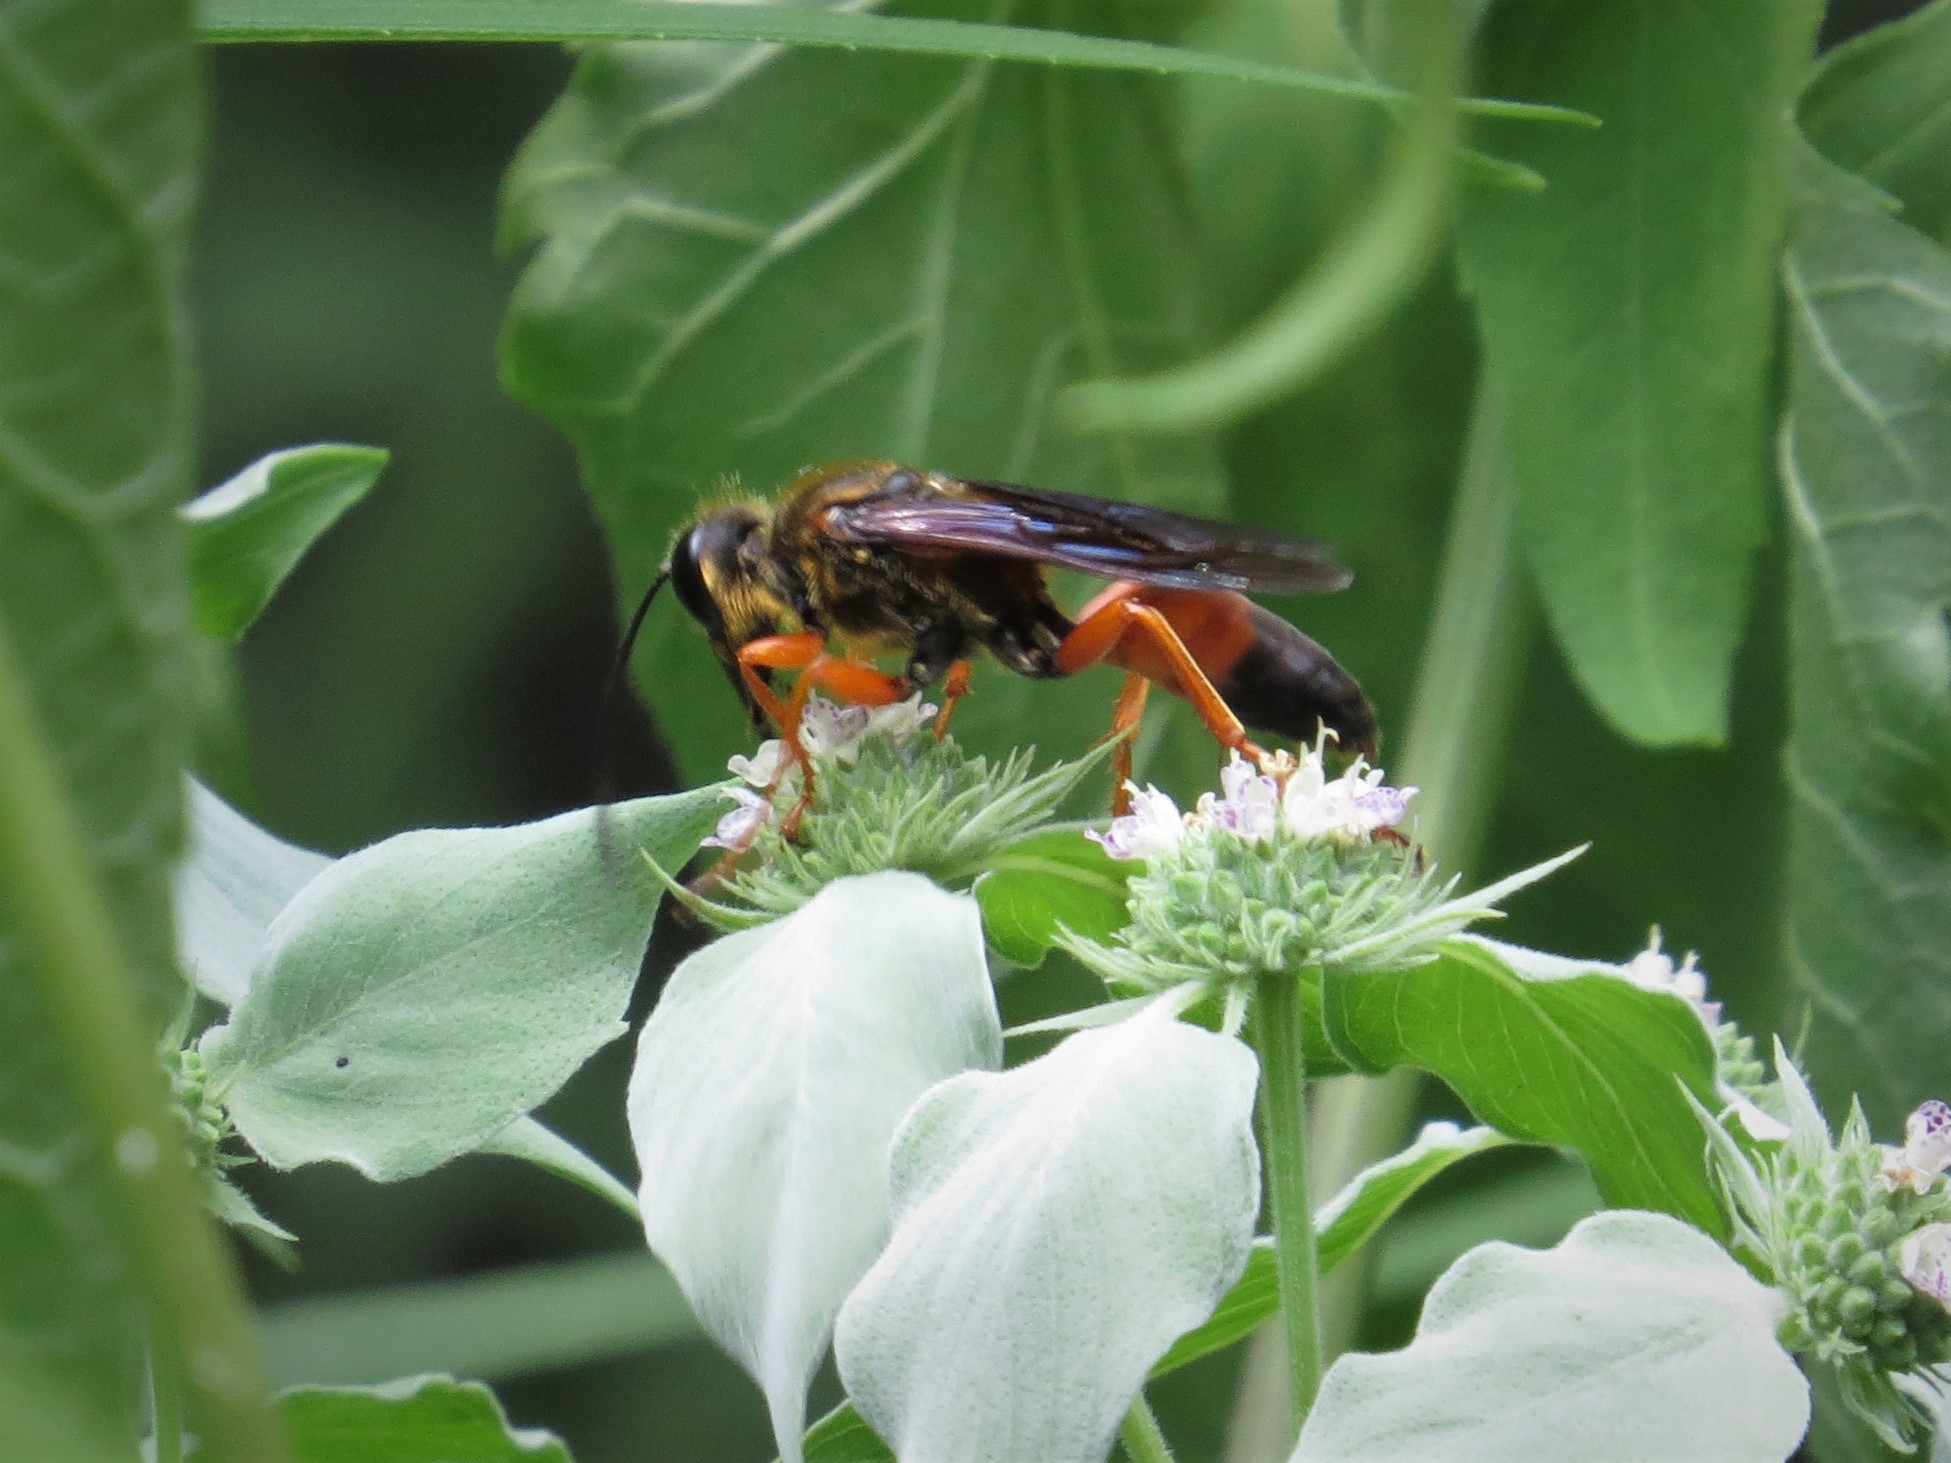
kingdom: Animalia
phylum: Arthropoda
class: Insecta
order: Hymenoptera
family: Sphecidae
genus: Sphex
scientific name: Sphex ichneumoneus
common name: Great golden digger wasp
